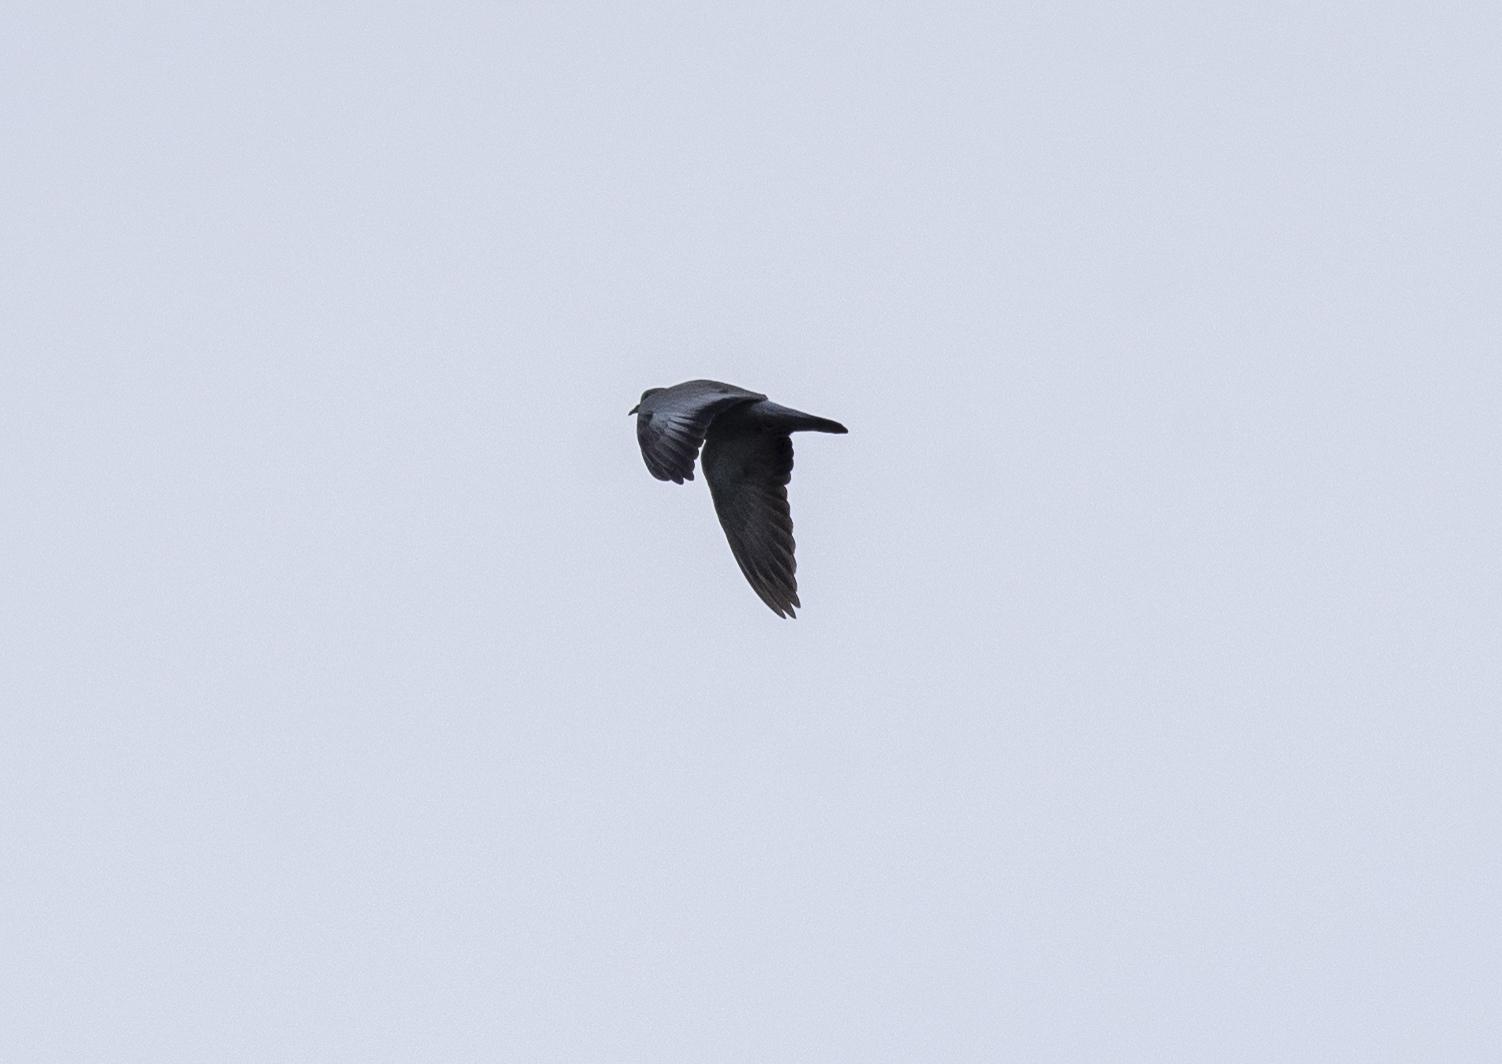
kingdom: Animalia
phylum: Chordata
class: Aves
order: Columbiformes
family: Columbidae
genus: Columba
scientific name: Columba oenas
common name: Stock dove
